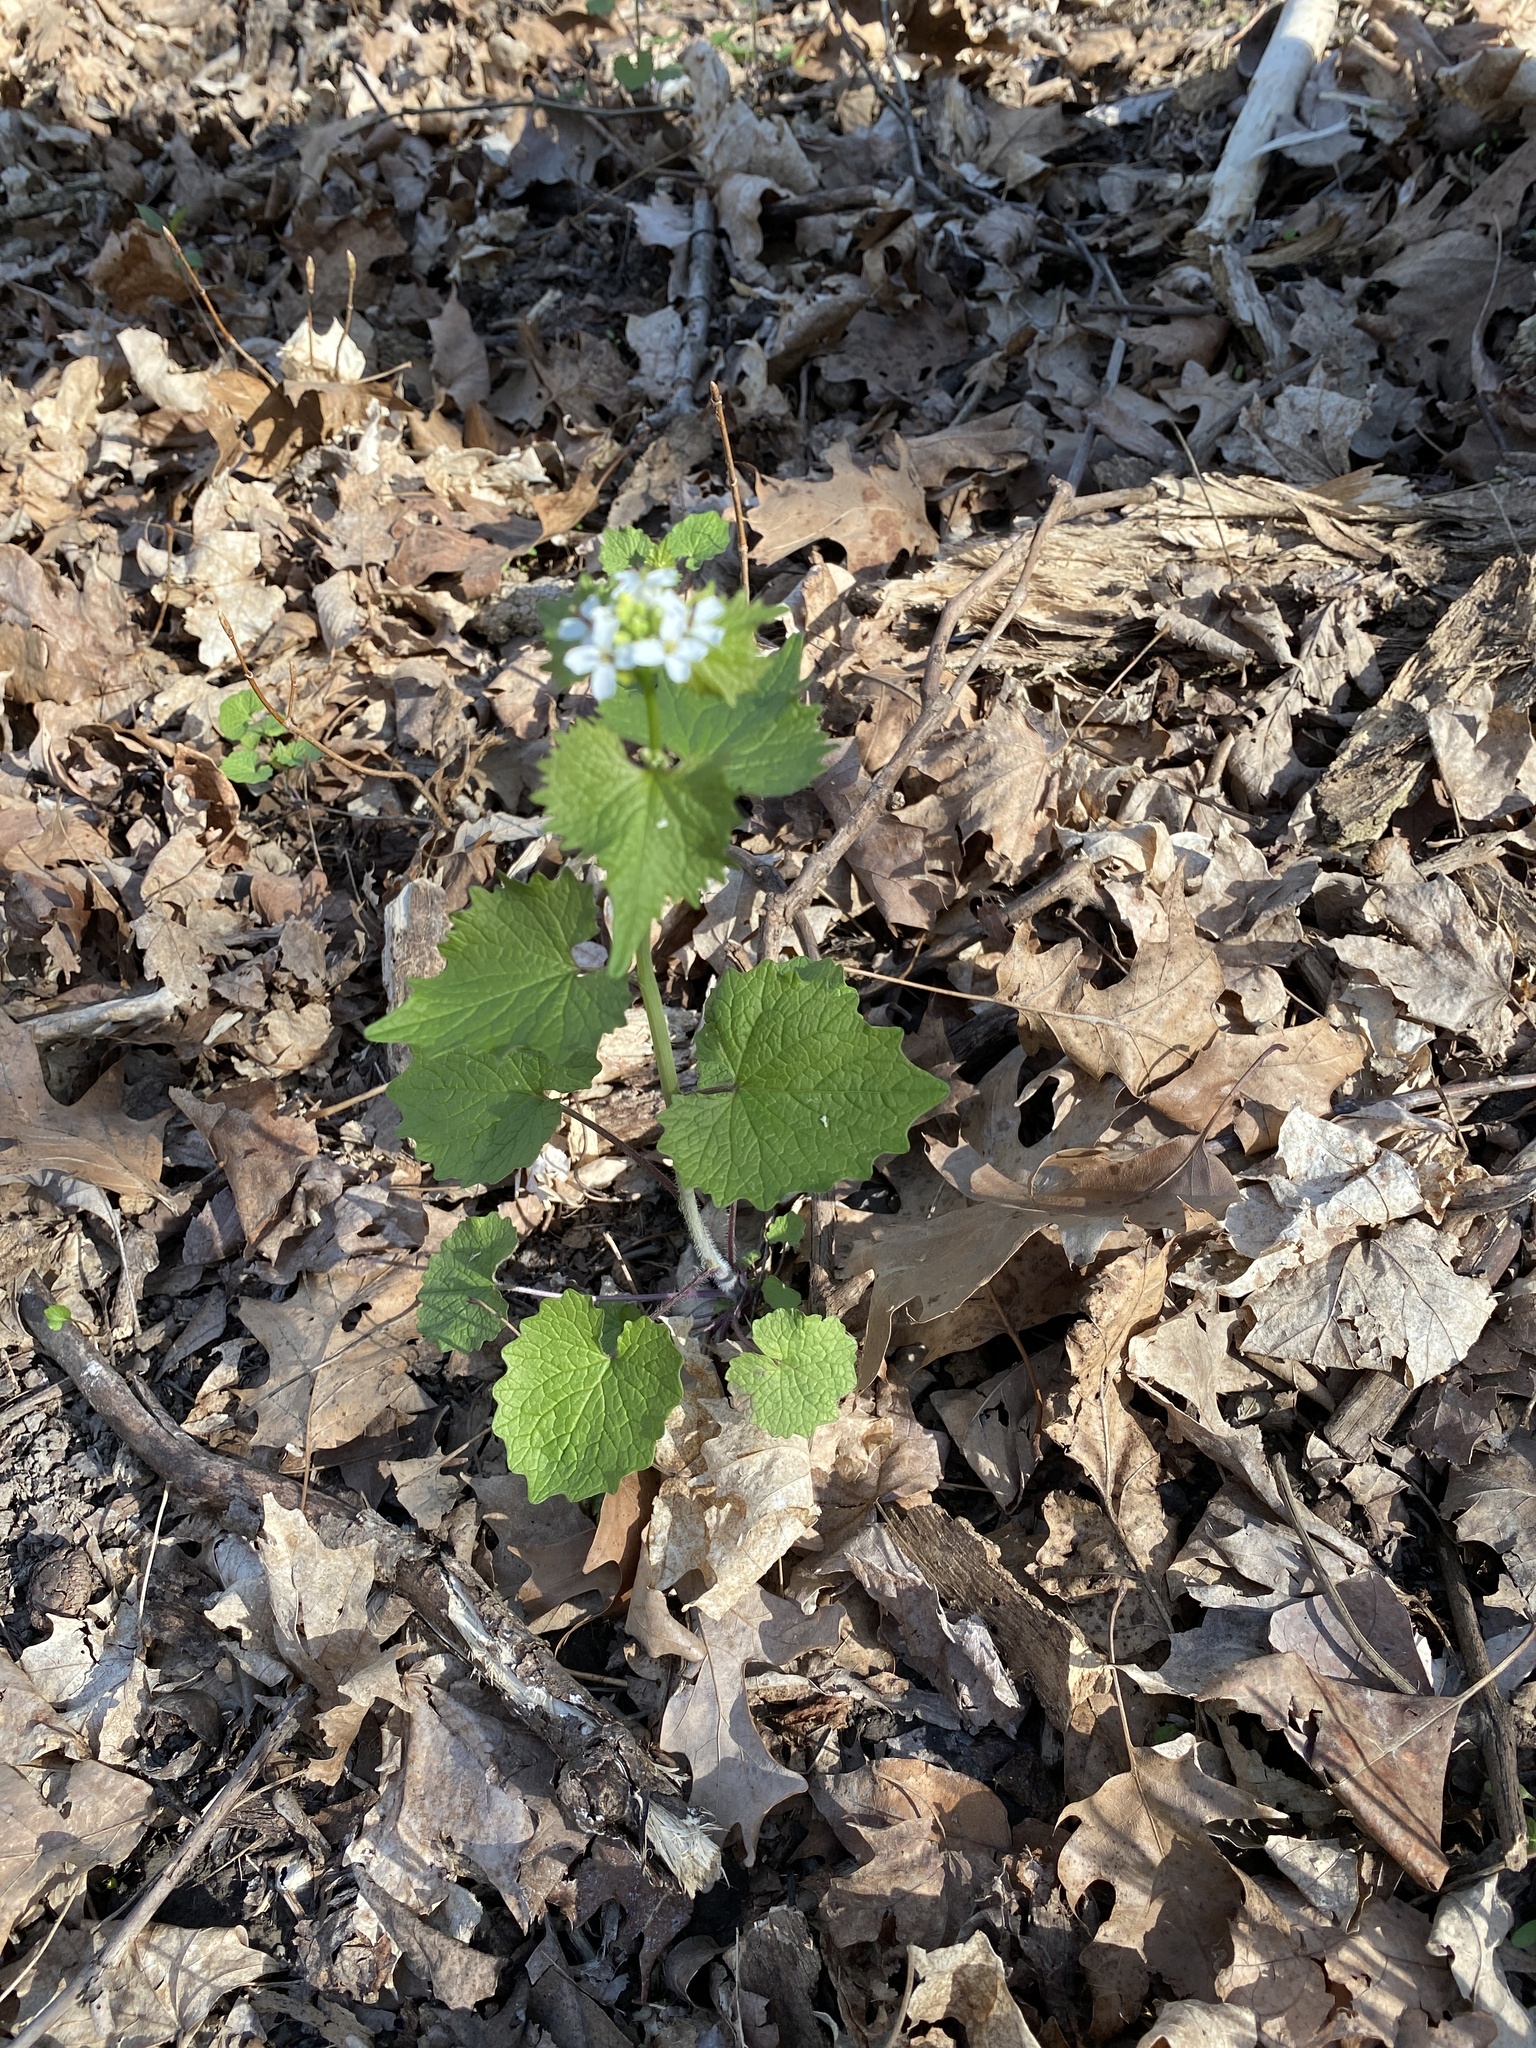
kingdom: Plantae
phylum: Tracheophyta
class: Magnoliopsida
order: Brassicales
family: Brassicaceae
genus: Alliaria
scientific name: Alliaria petiolata
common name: Garlic mustard
